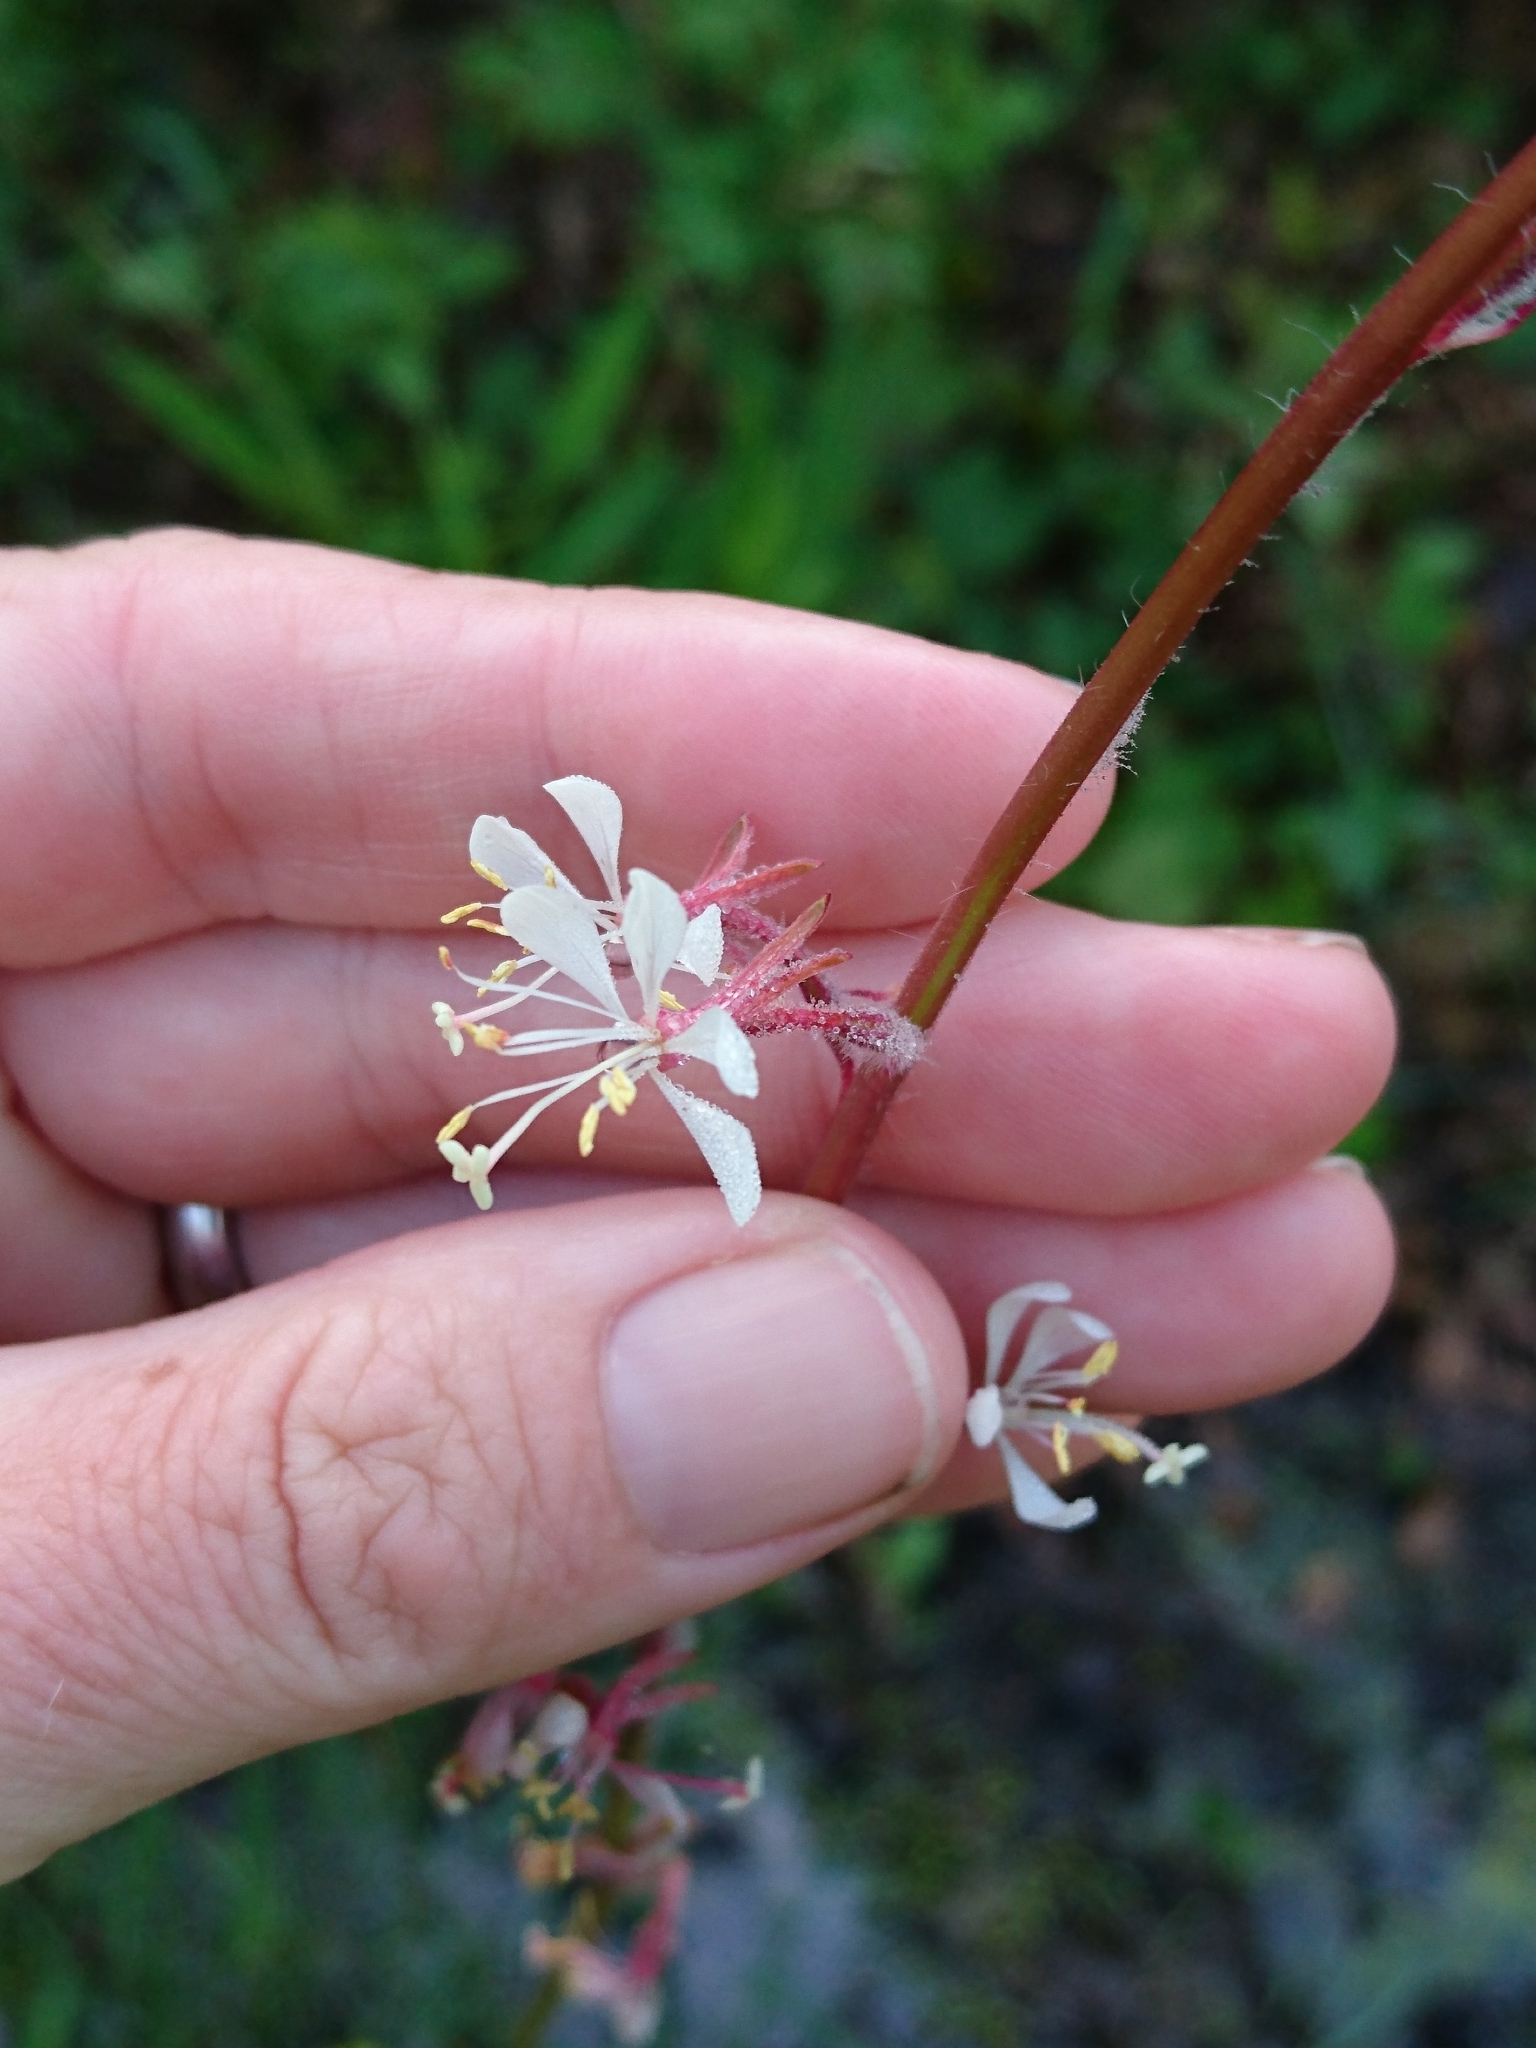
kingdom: Plantae
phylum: Tracheophyta
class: Magnoliopsida
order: Myrtales
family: Onagraceae
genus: Oenothera
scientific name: Oenothera simulans
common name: Southern beeblossom
